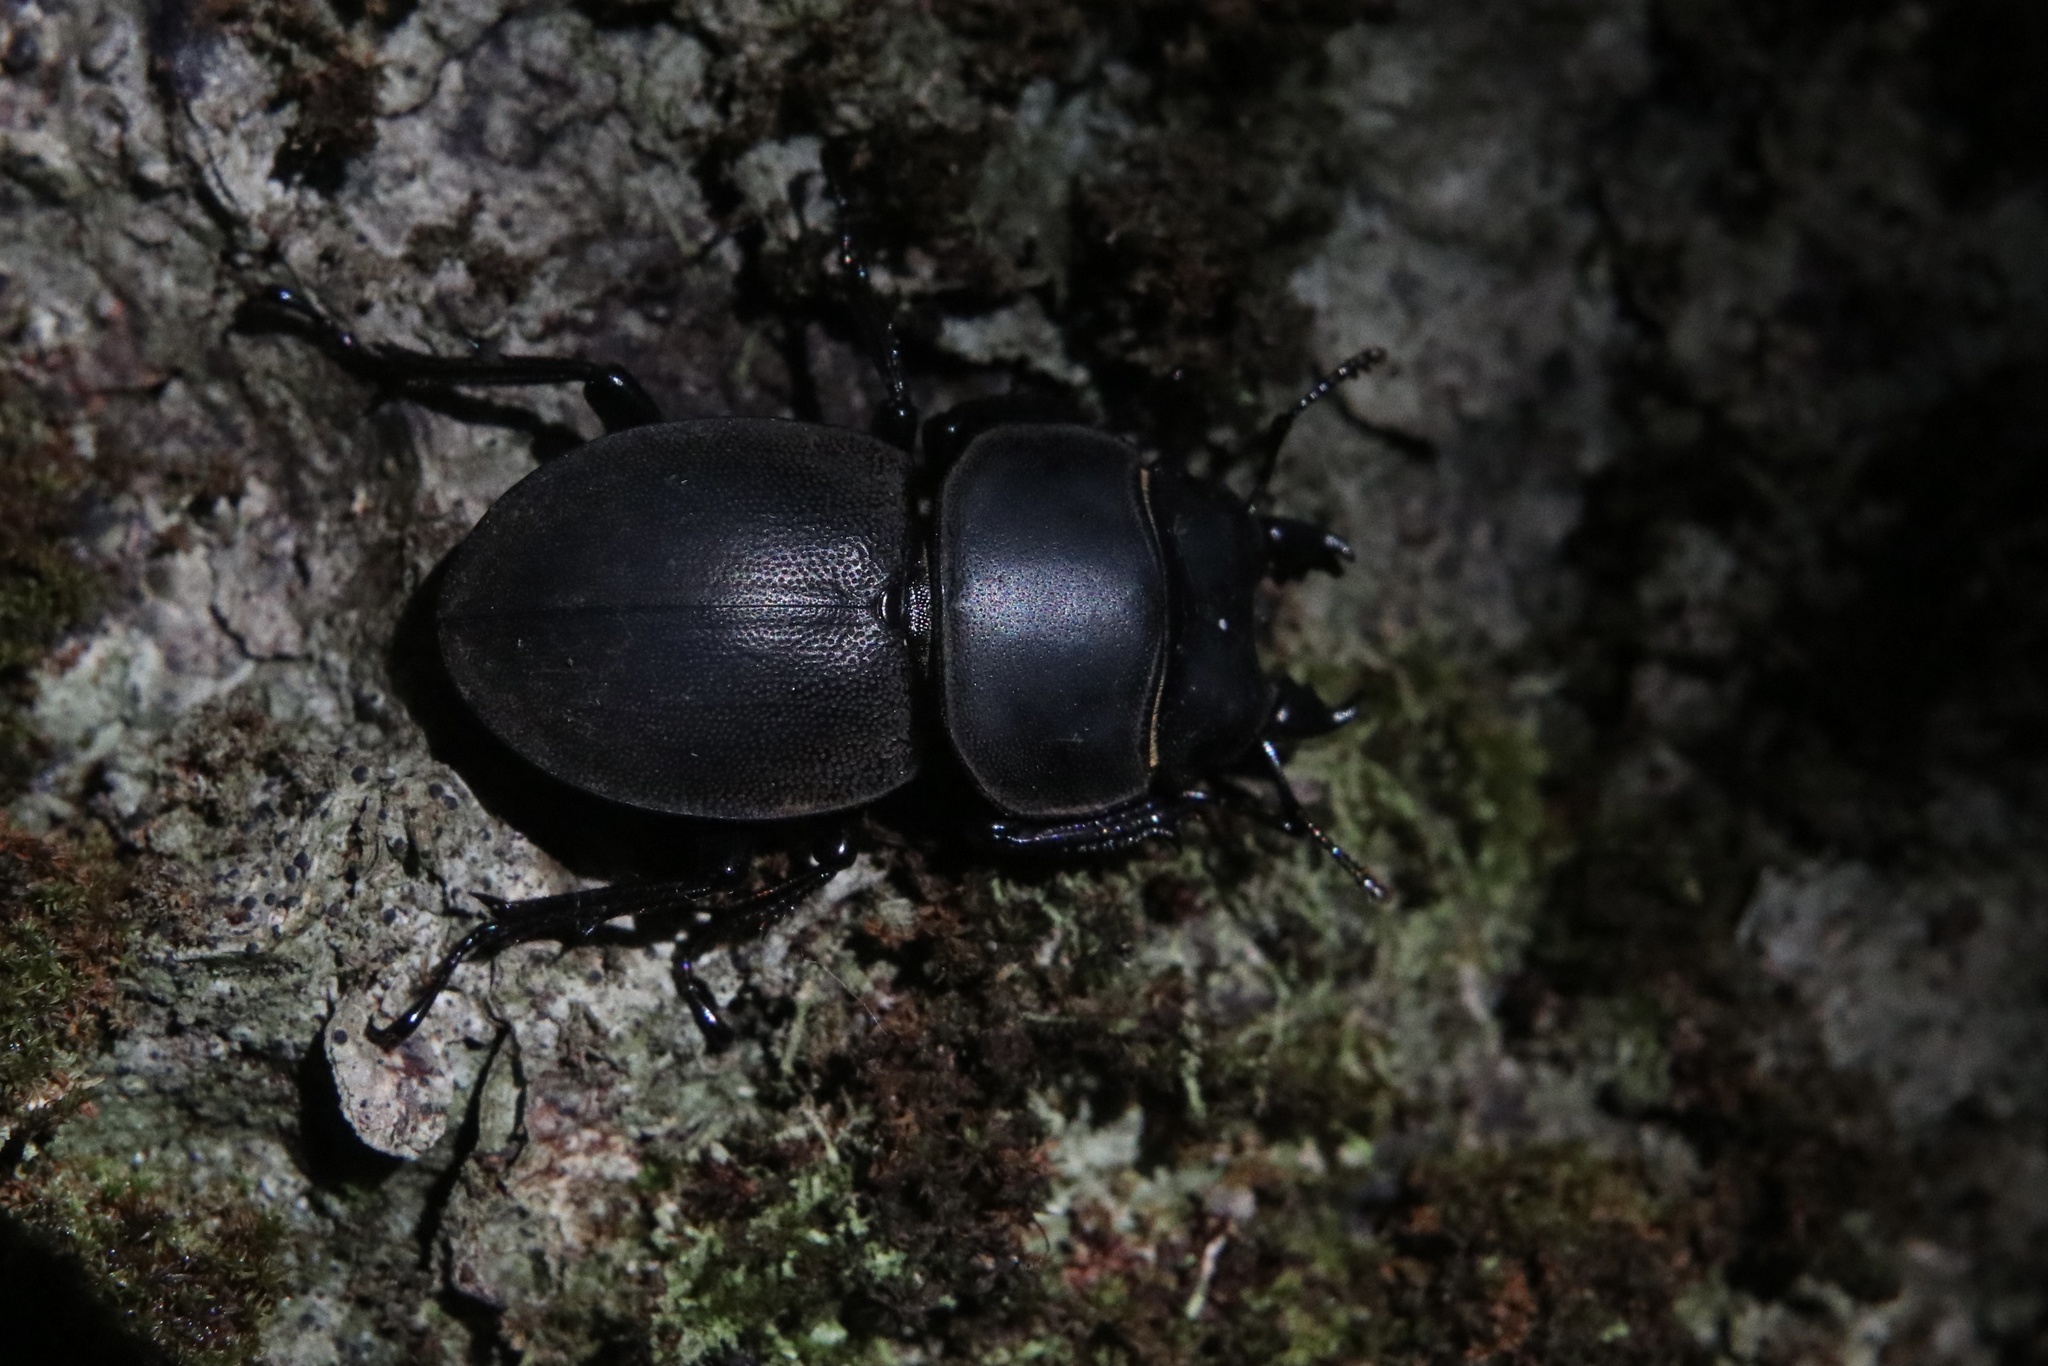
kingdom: Animalia
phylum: Arthropoda
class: Insecta
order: Coleoptera
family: Lucanidae
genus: Apterodorcus
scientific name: Apterodorcus bacchus
